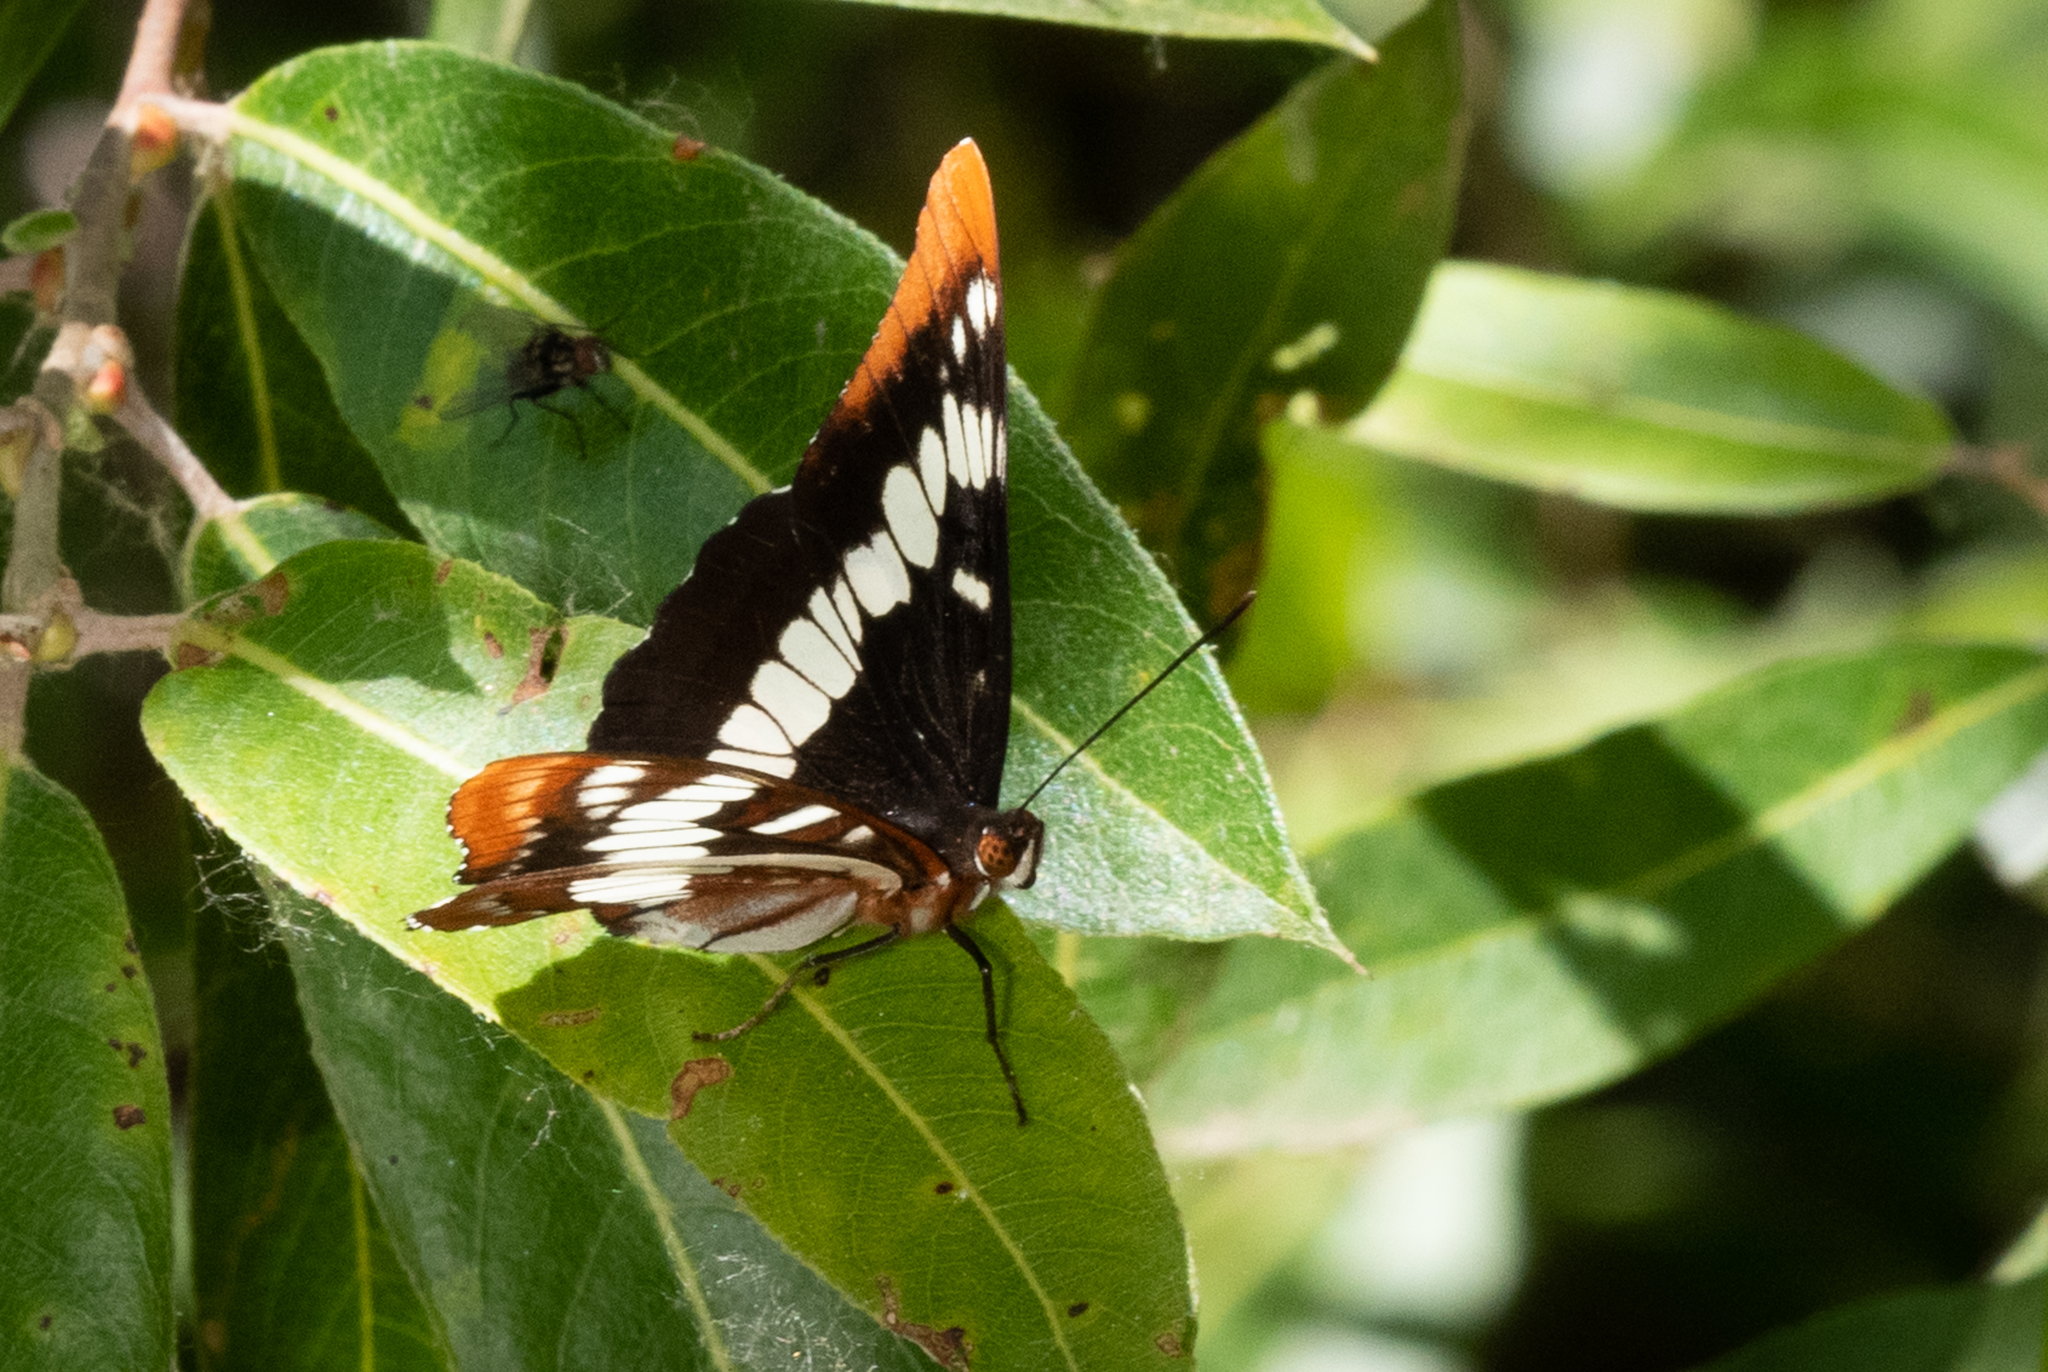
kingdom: Animalia
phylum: Arthropoda
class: Insecta
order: Lepidoptera
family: Nymphalidae
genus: Limenitis
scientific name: Limenitis lorquini
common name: Lorquin's admiral
